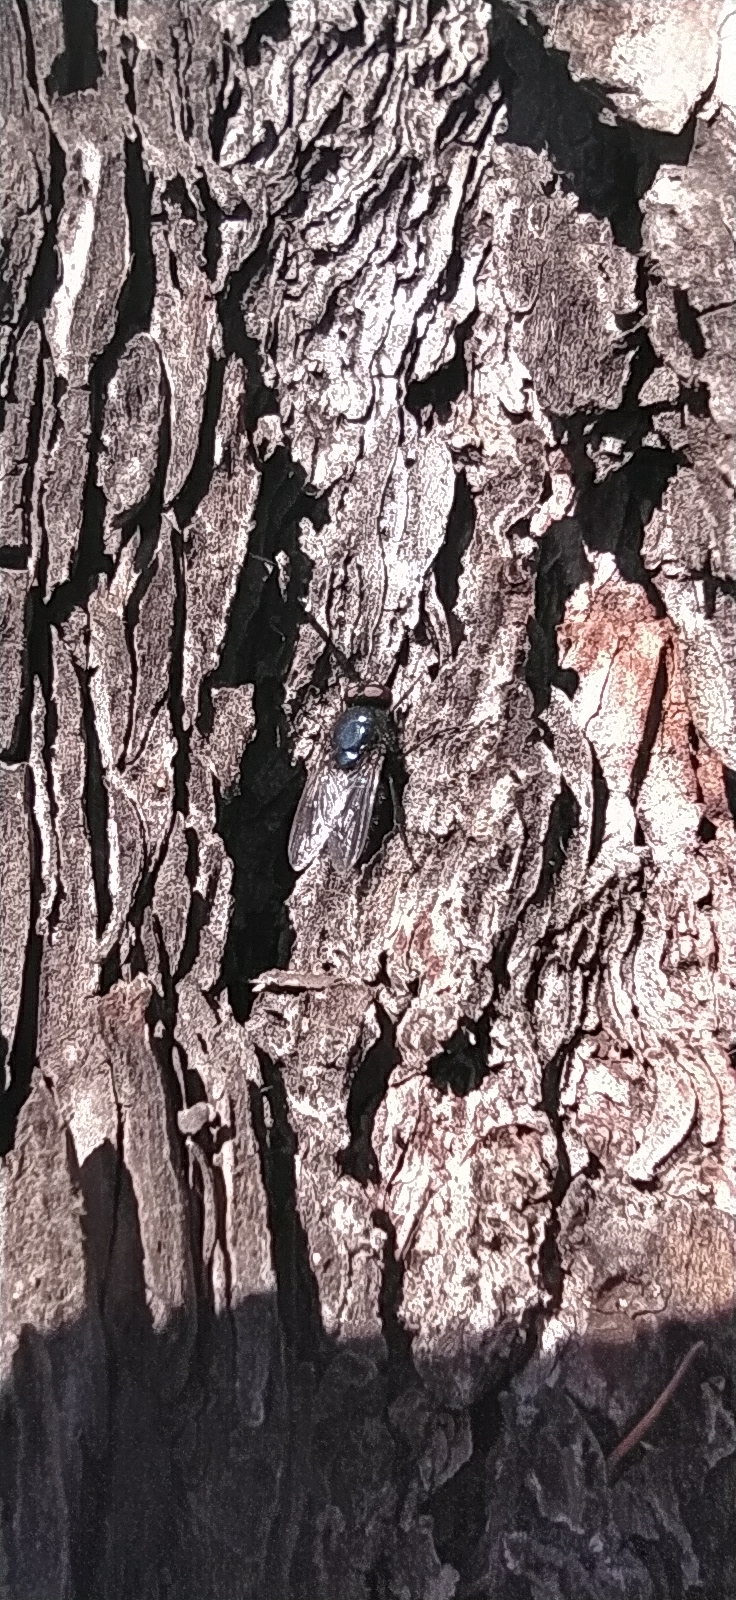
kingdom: Animalia
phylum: Arthropoda
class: Insecta
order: Diptera
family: Calliphoridae
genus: Protophormia
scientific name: Protophormia terraenovae
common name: Blackbottle
